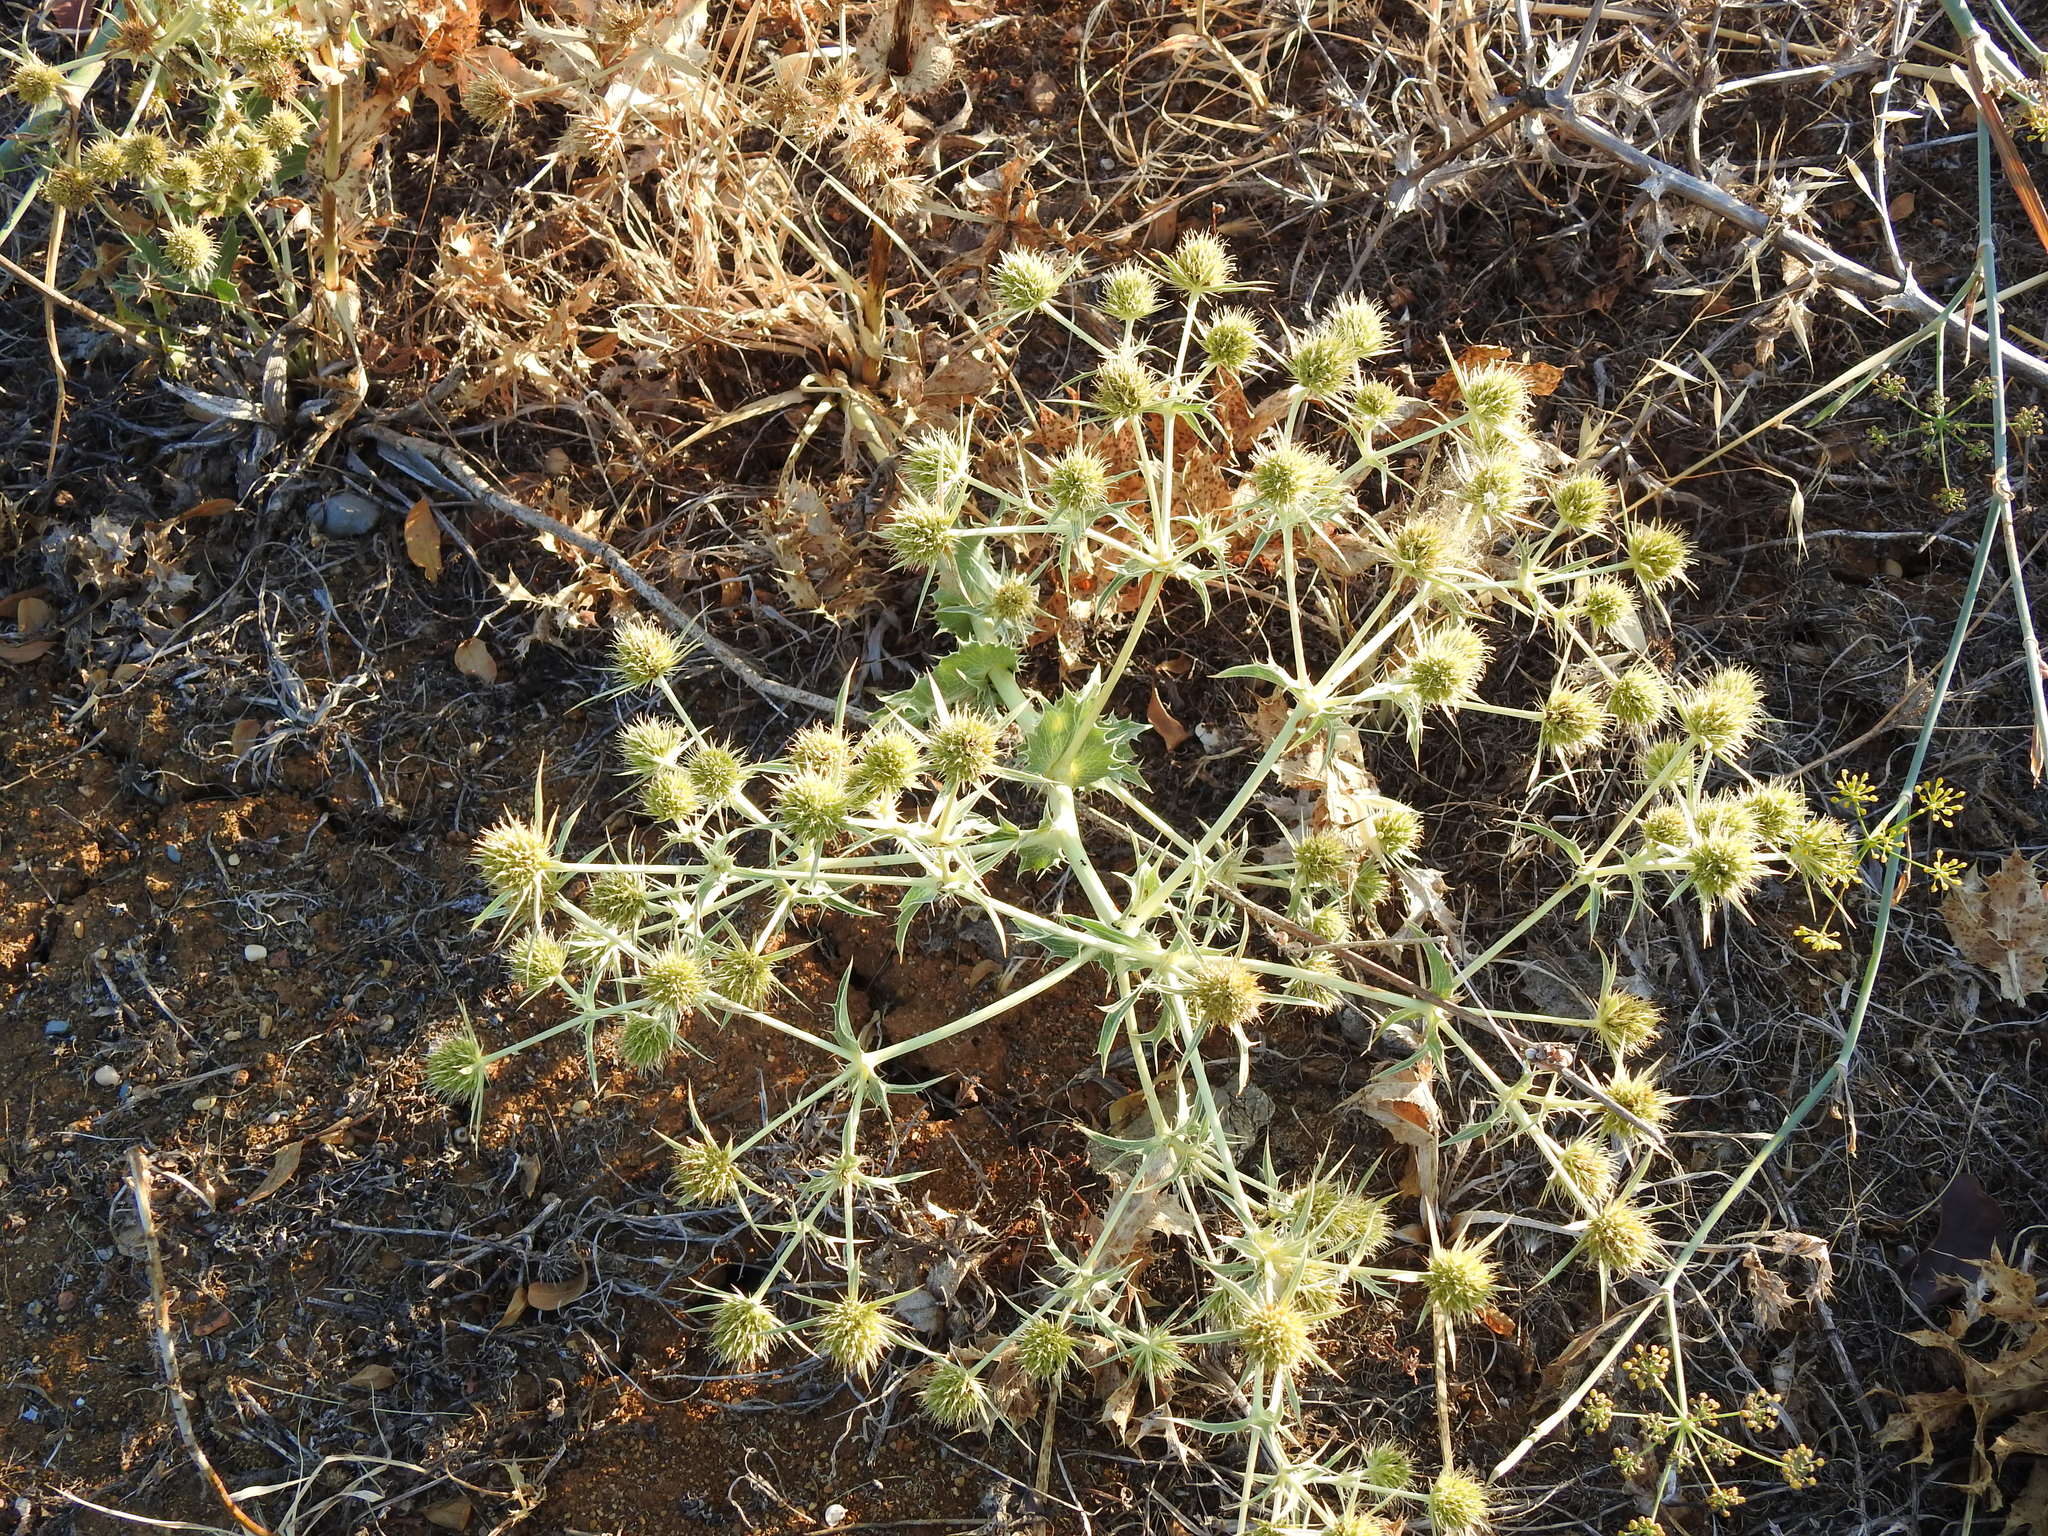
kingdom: Plantae
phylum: Tracheophyta
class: Magnoliopsida
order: Apiales
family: Apiaceae
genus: Eryngium
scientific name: Eryngium campestre
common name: Field eryngo
